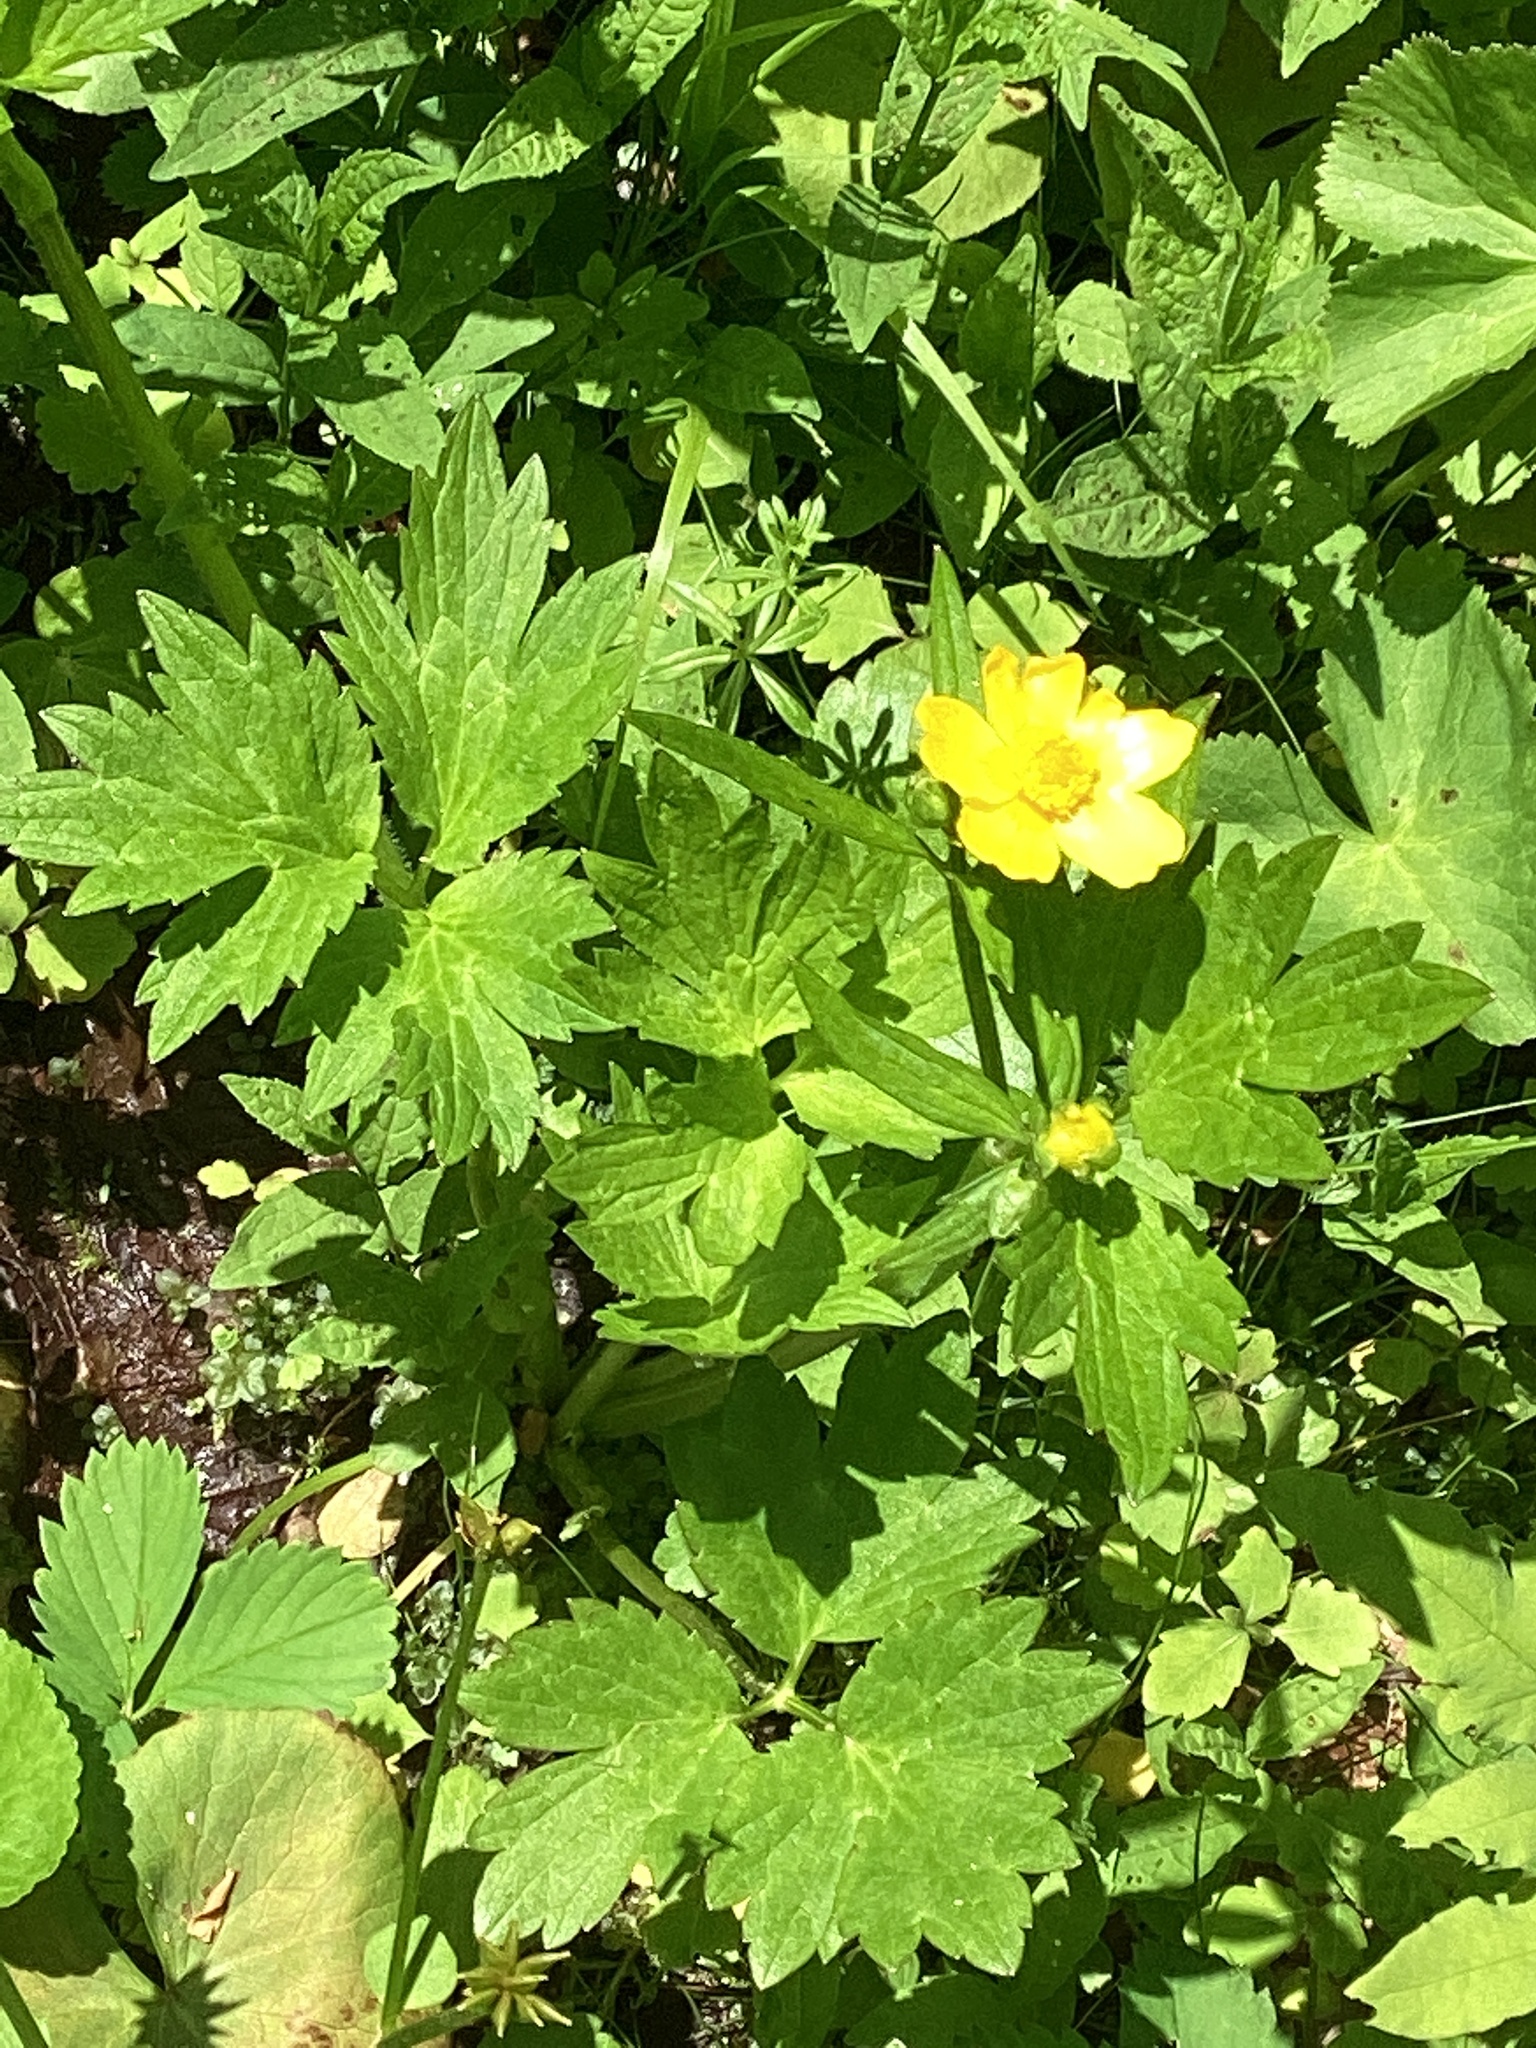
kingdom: Plantae
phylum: Tracheophyta
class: Magnoliopsida
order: Ranunculales
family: Ranunculaceae
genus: Ranunculus
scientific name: Ranunculus hispidus
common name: Bristly buttercup
